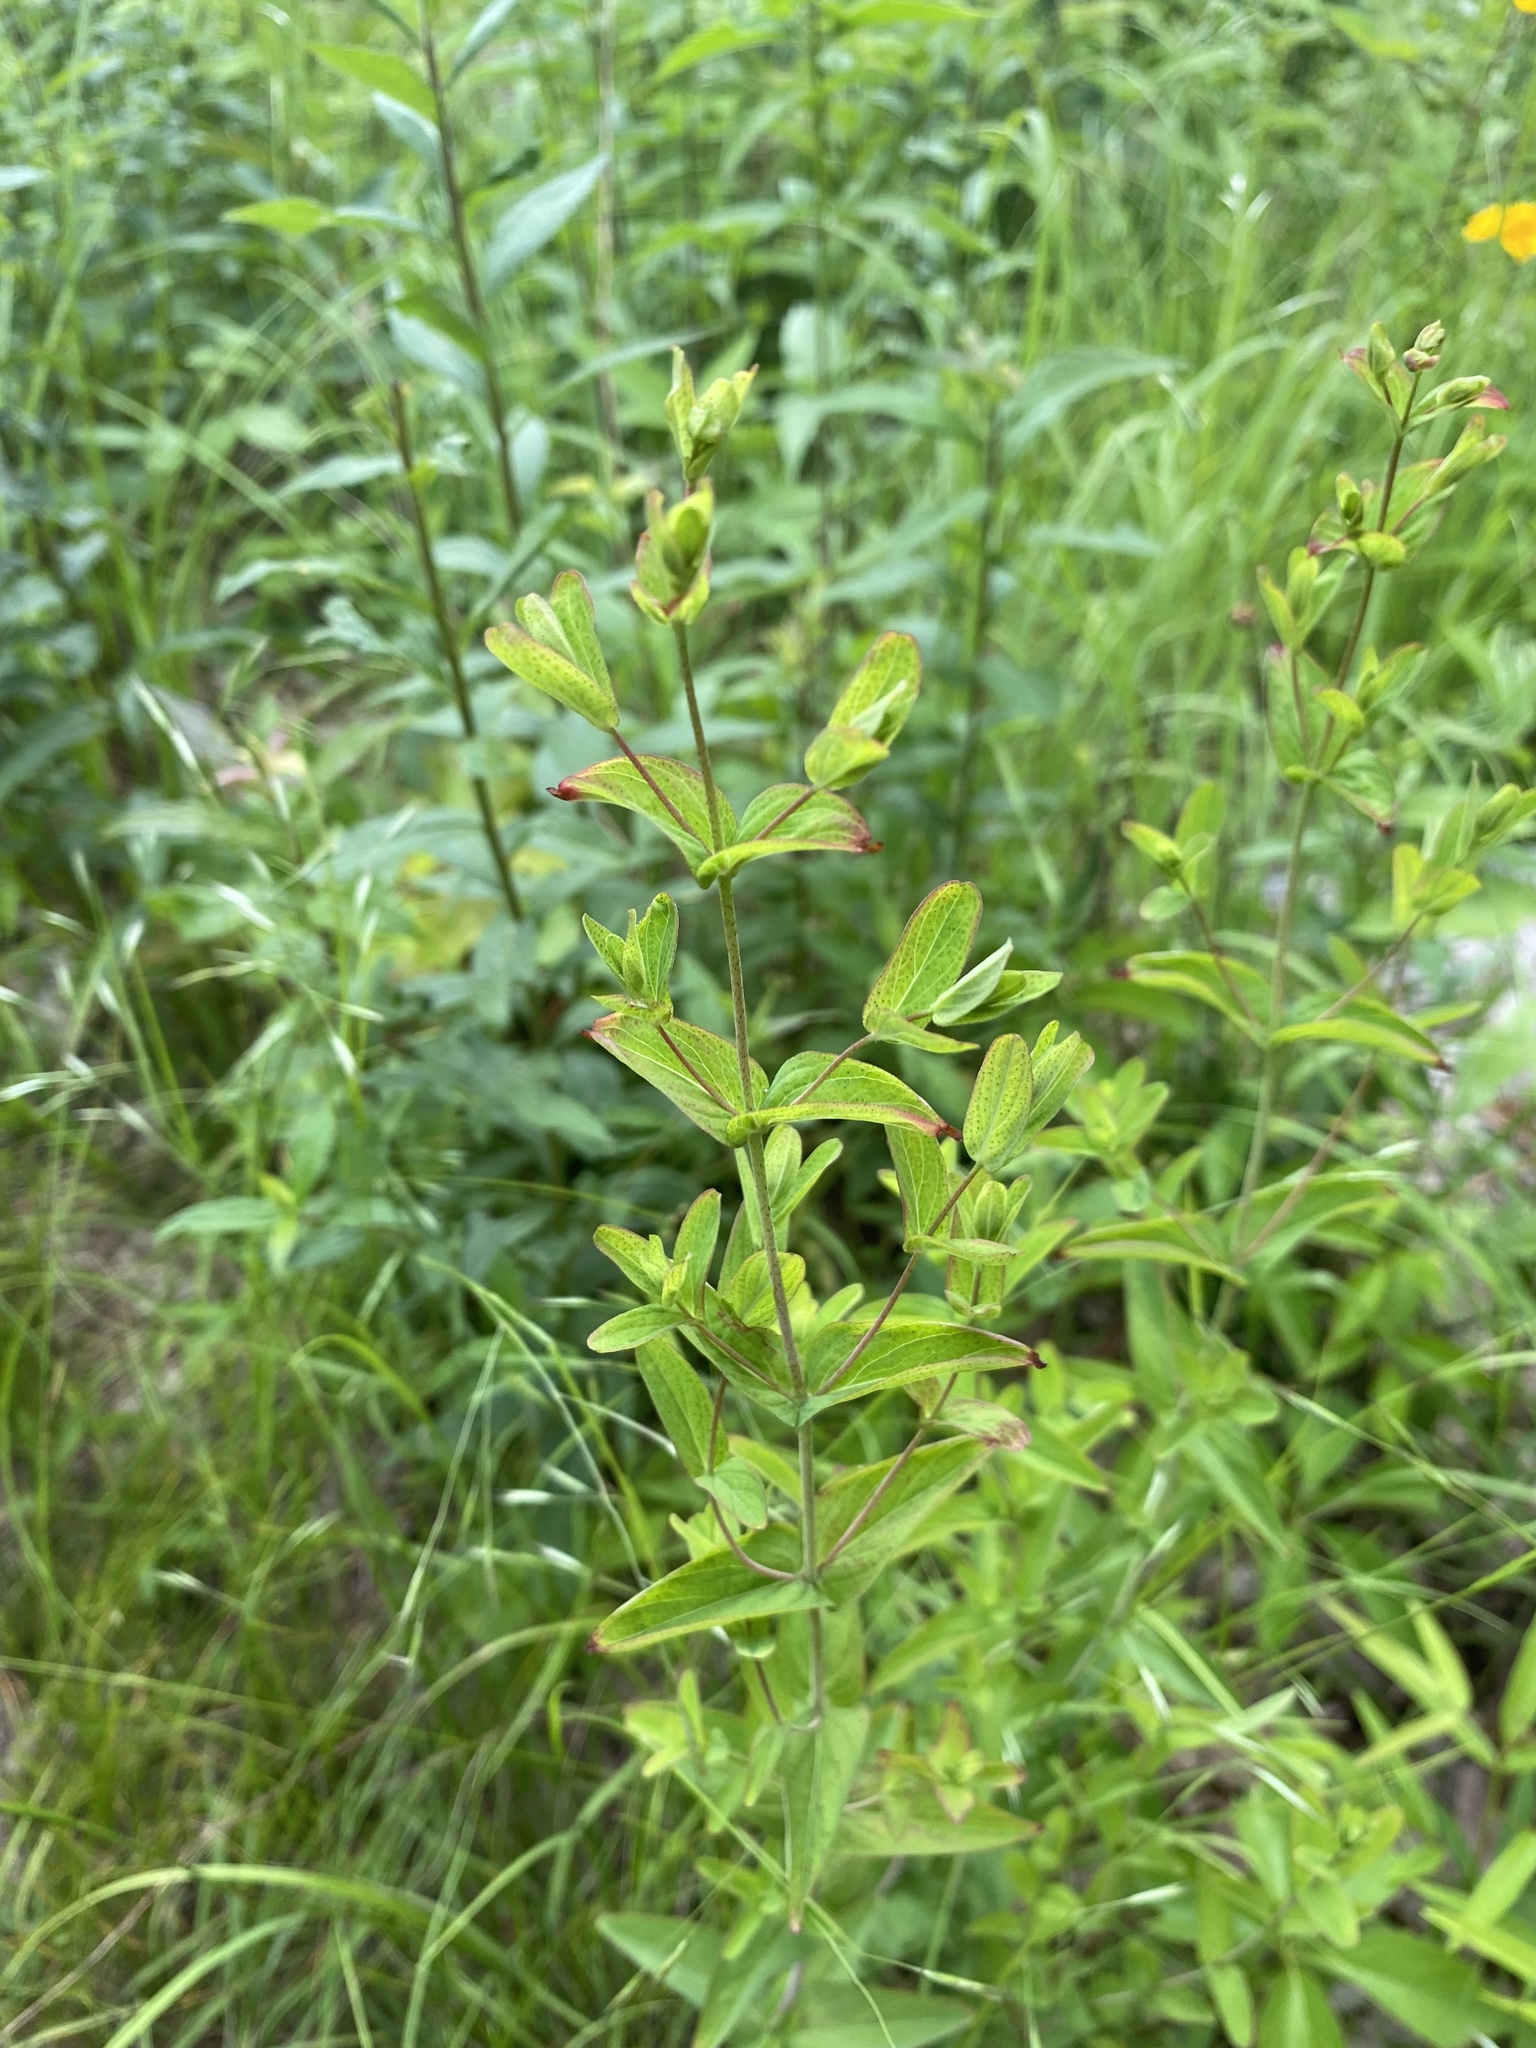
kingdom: Plantae
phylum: Tracheophyta
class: Magnoliopsida
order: Malpighiales
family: Hypericaceae
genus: Hypericum
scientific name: Hypericum punctatum
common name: Spotted st. john's-wort
